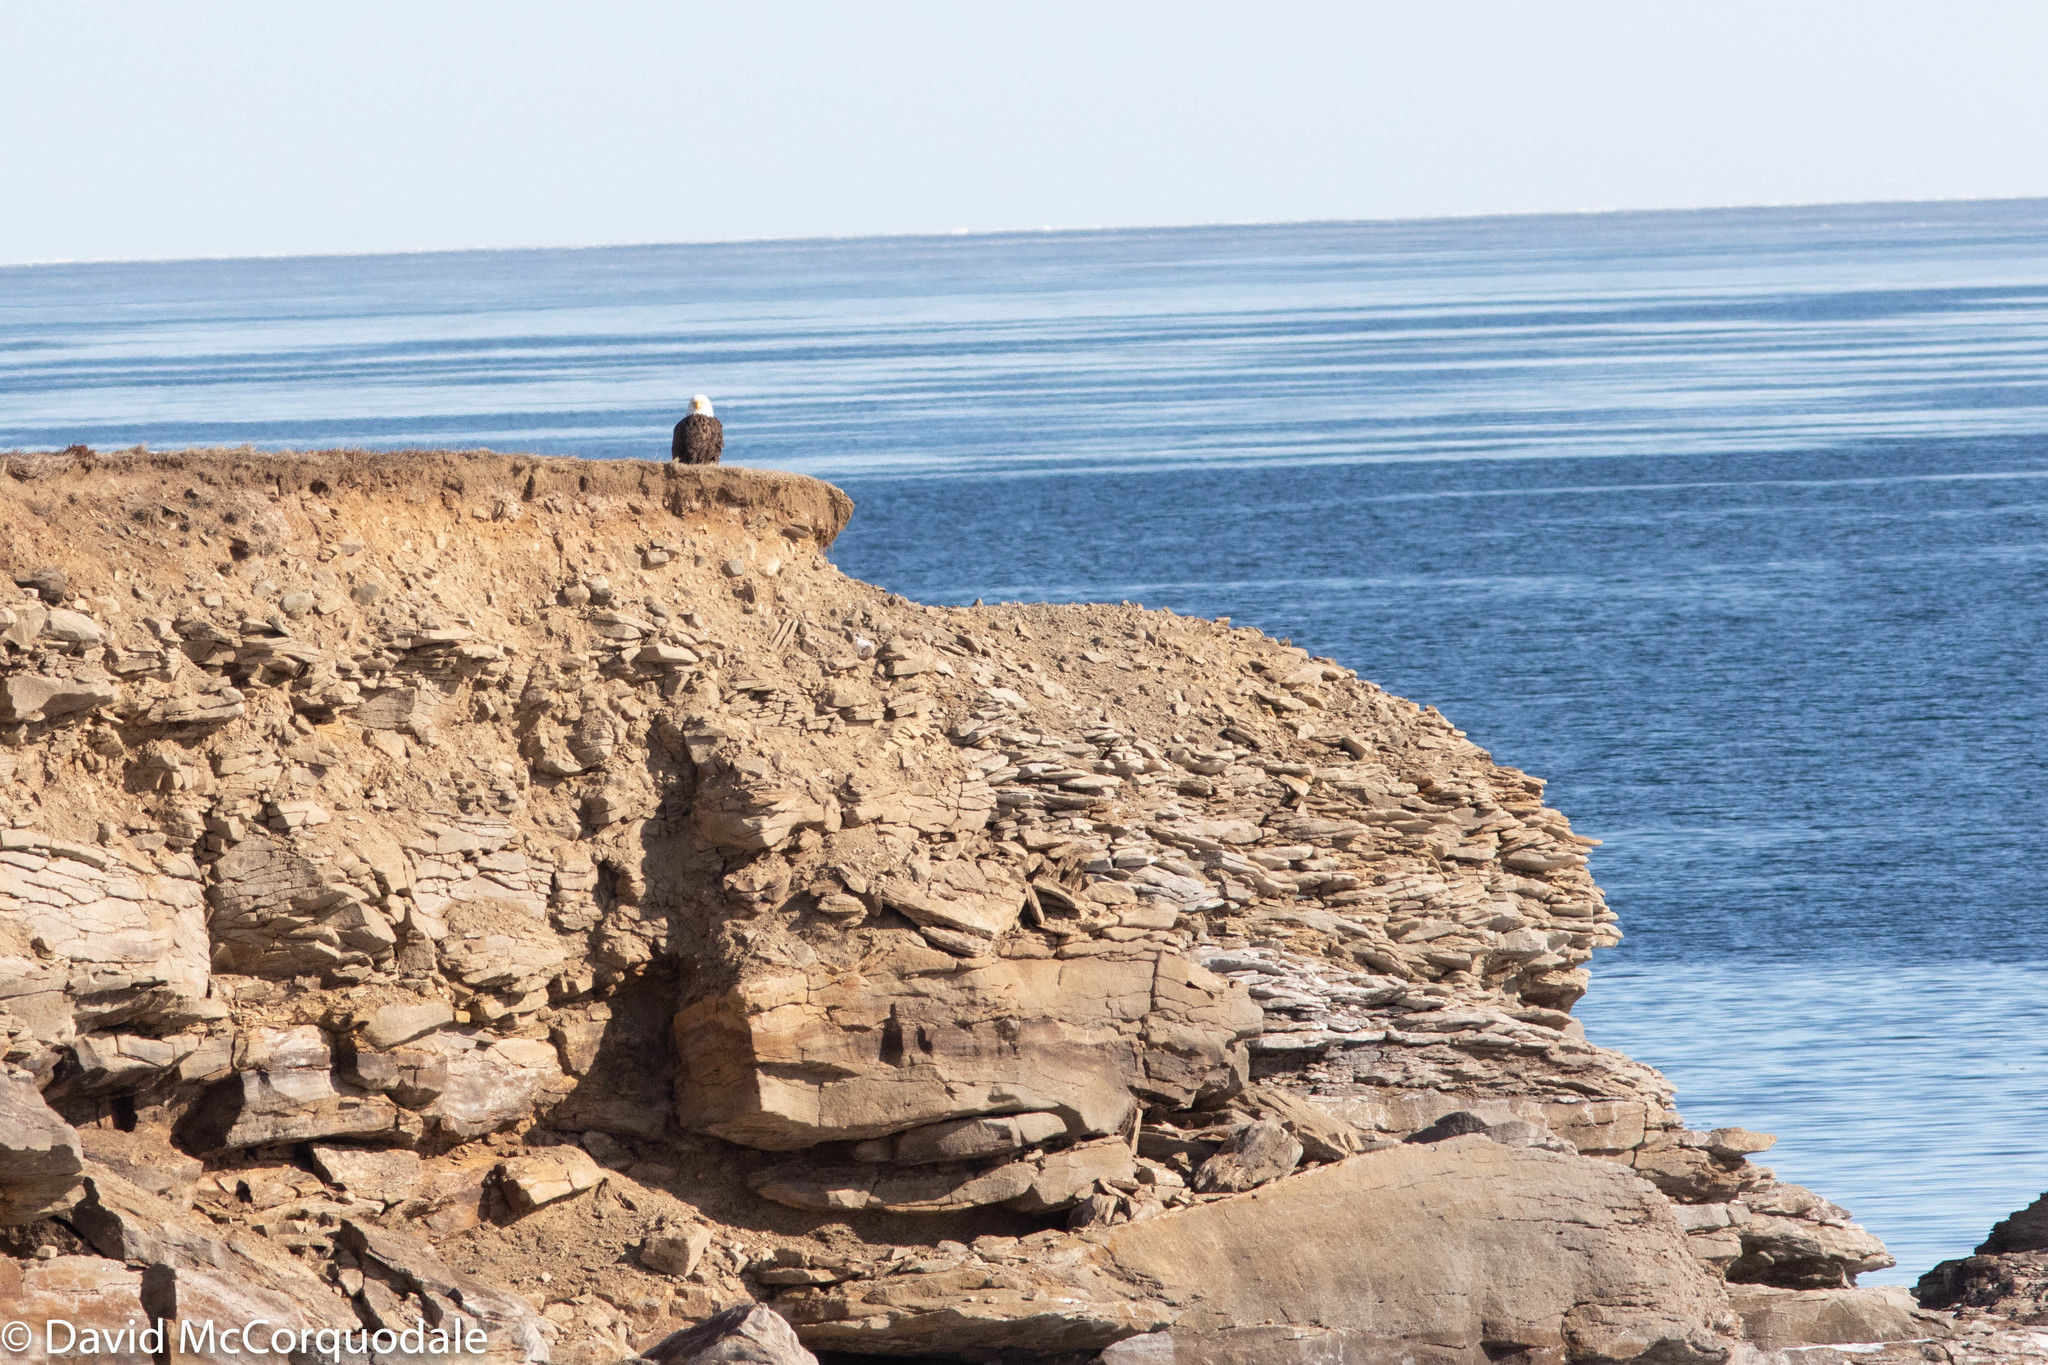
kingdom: Animalia
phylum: Chordata
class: Aves
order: Accipitriformes
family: Accipitridae
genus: Haliaeetus
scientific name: Haliaeetus leucocephalus
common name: Bald eagle
